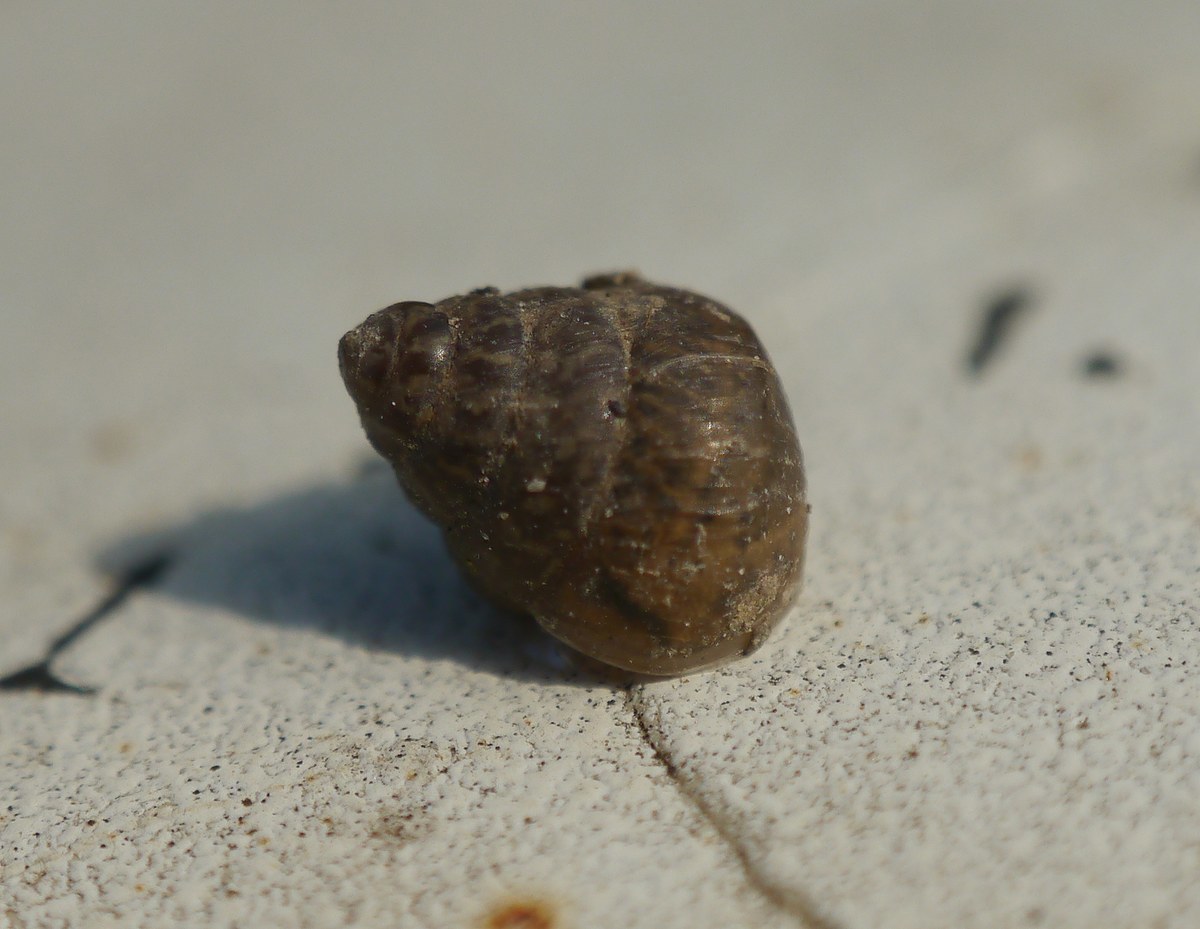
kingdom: Animalia
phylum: Mollusca
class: Gastropoda
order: Stylommatophora
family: Enidae
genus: Chondrula
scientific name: Chondrula tridens
